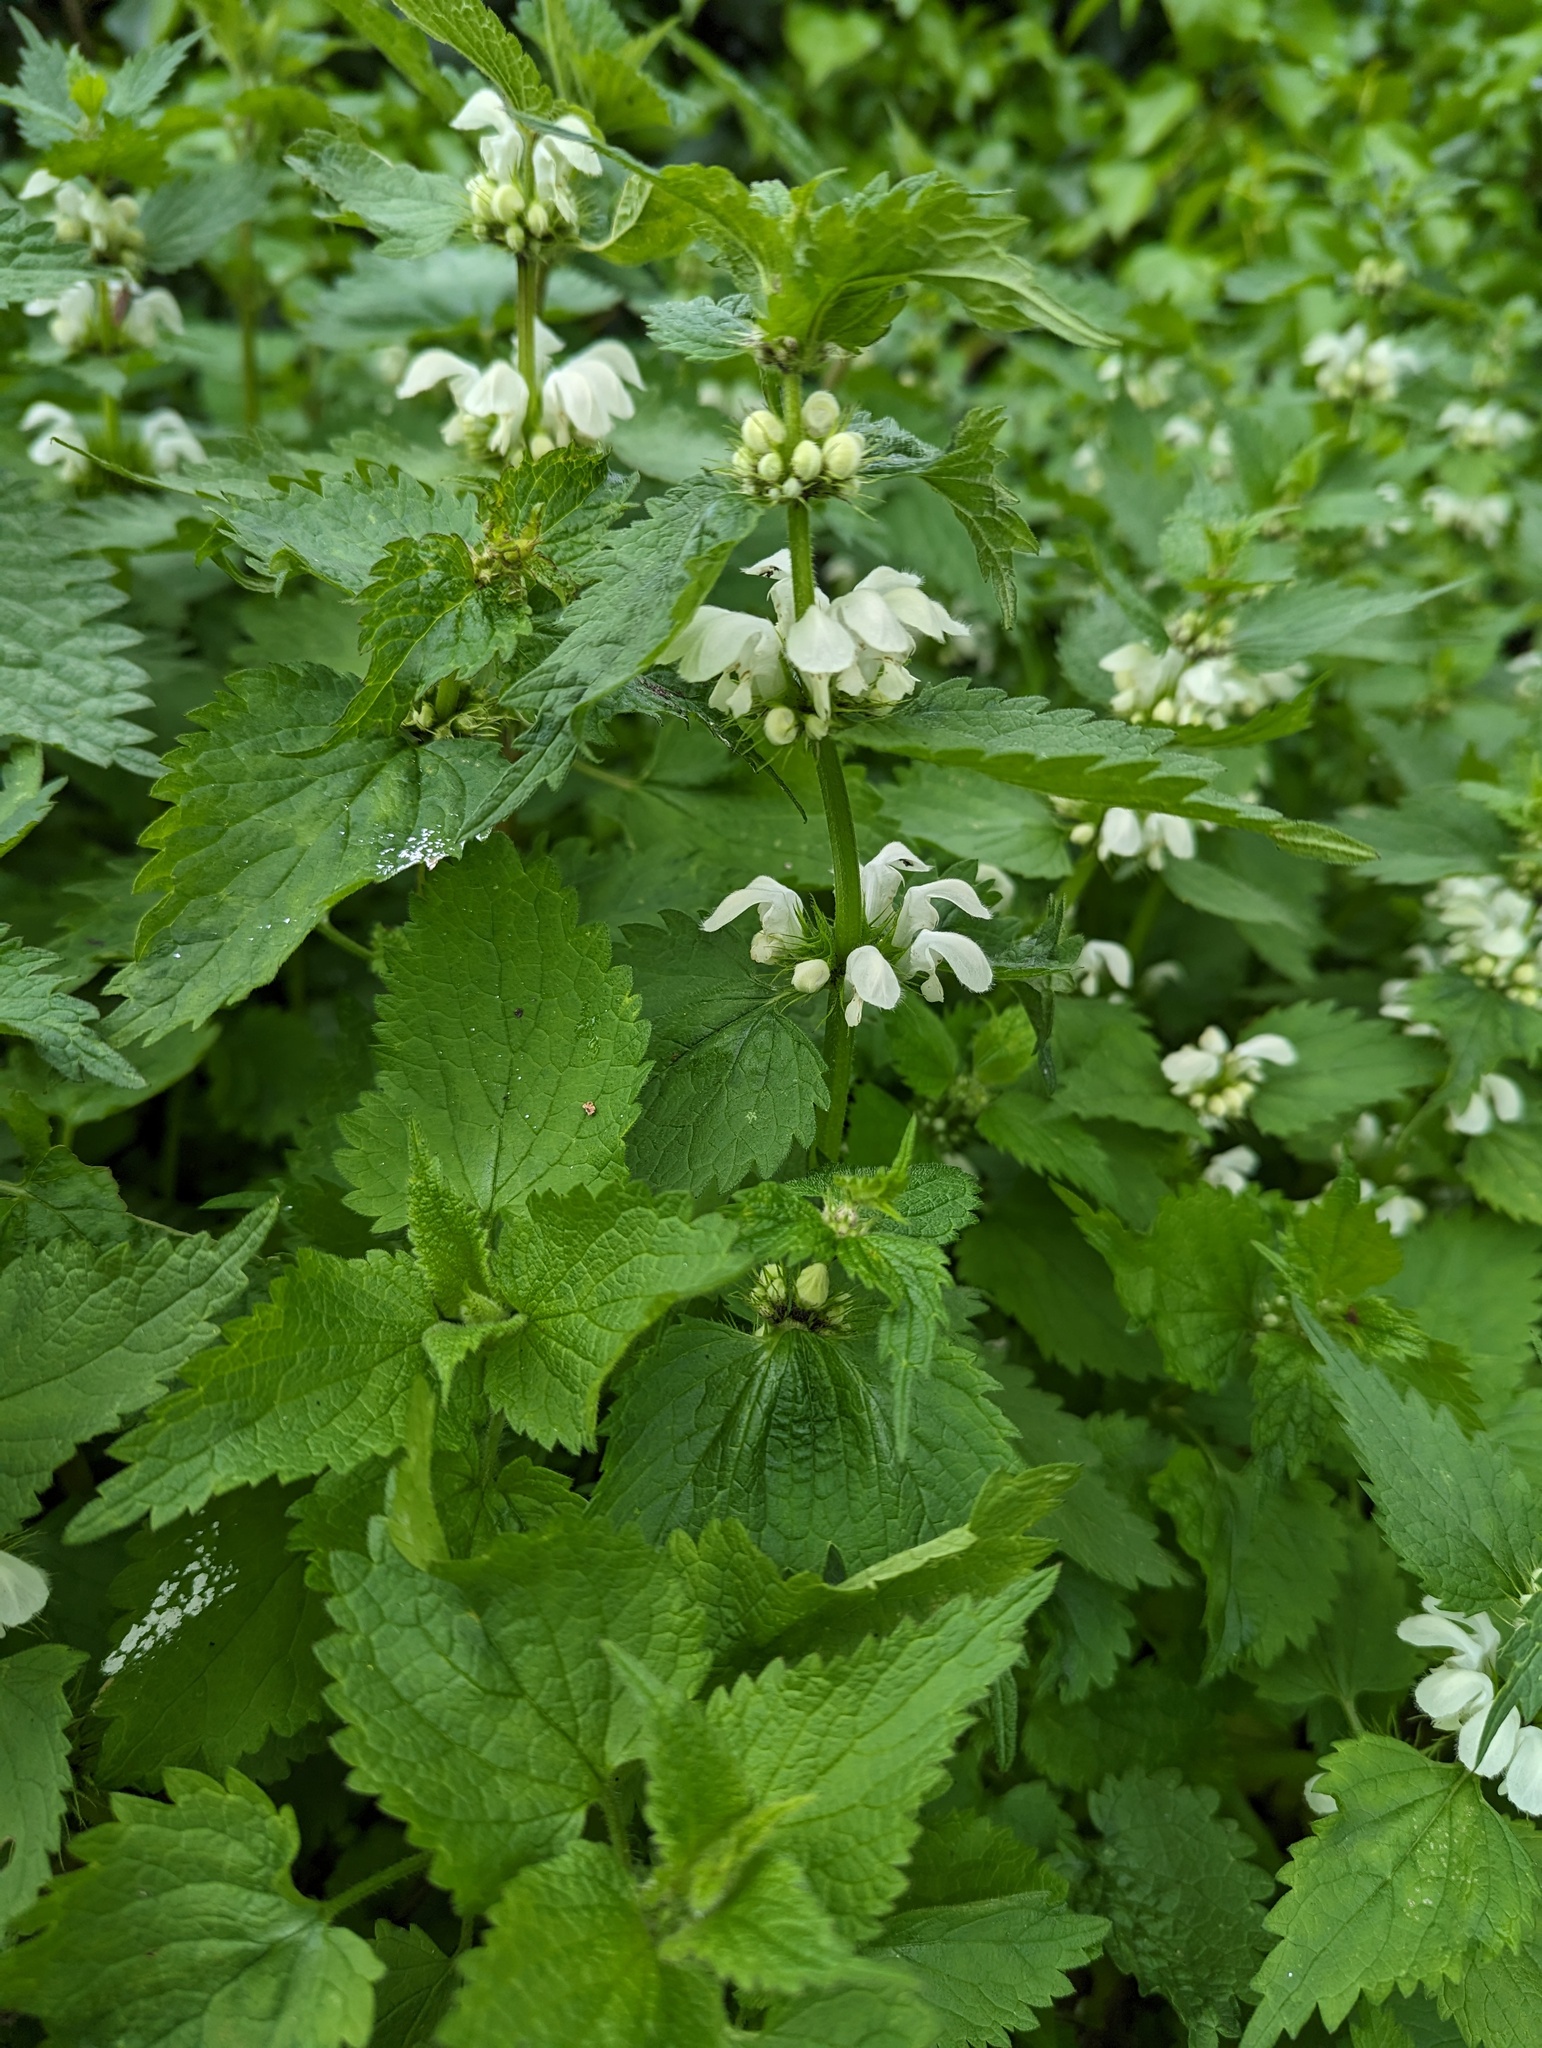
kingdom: Plantae
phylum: Tracheophyta
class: Magnoliopsida
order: Lamiales
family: Lamiaceae
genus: Lamium
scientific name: Lamium album
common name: White dead-nettle
